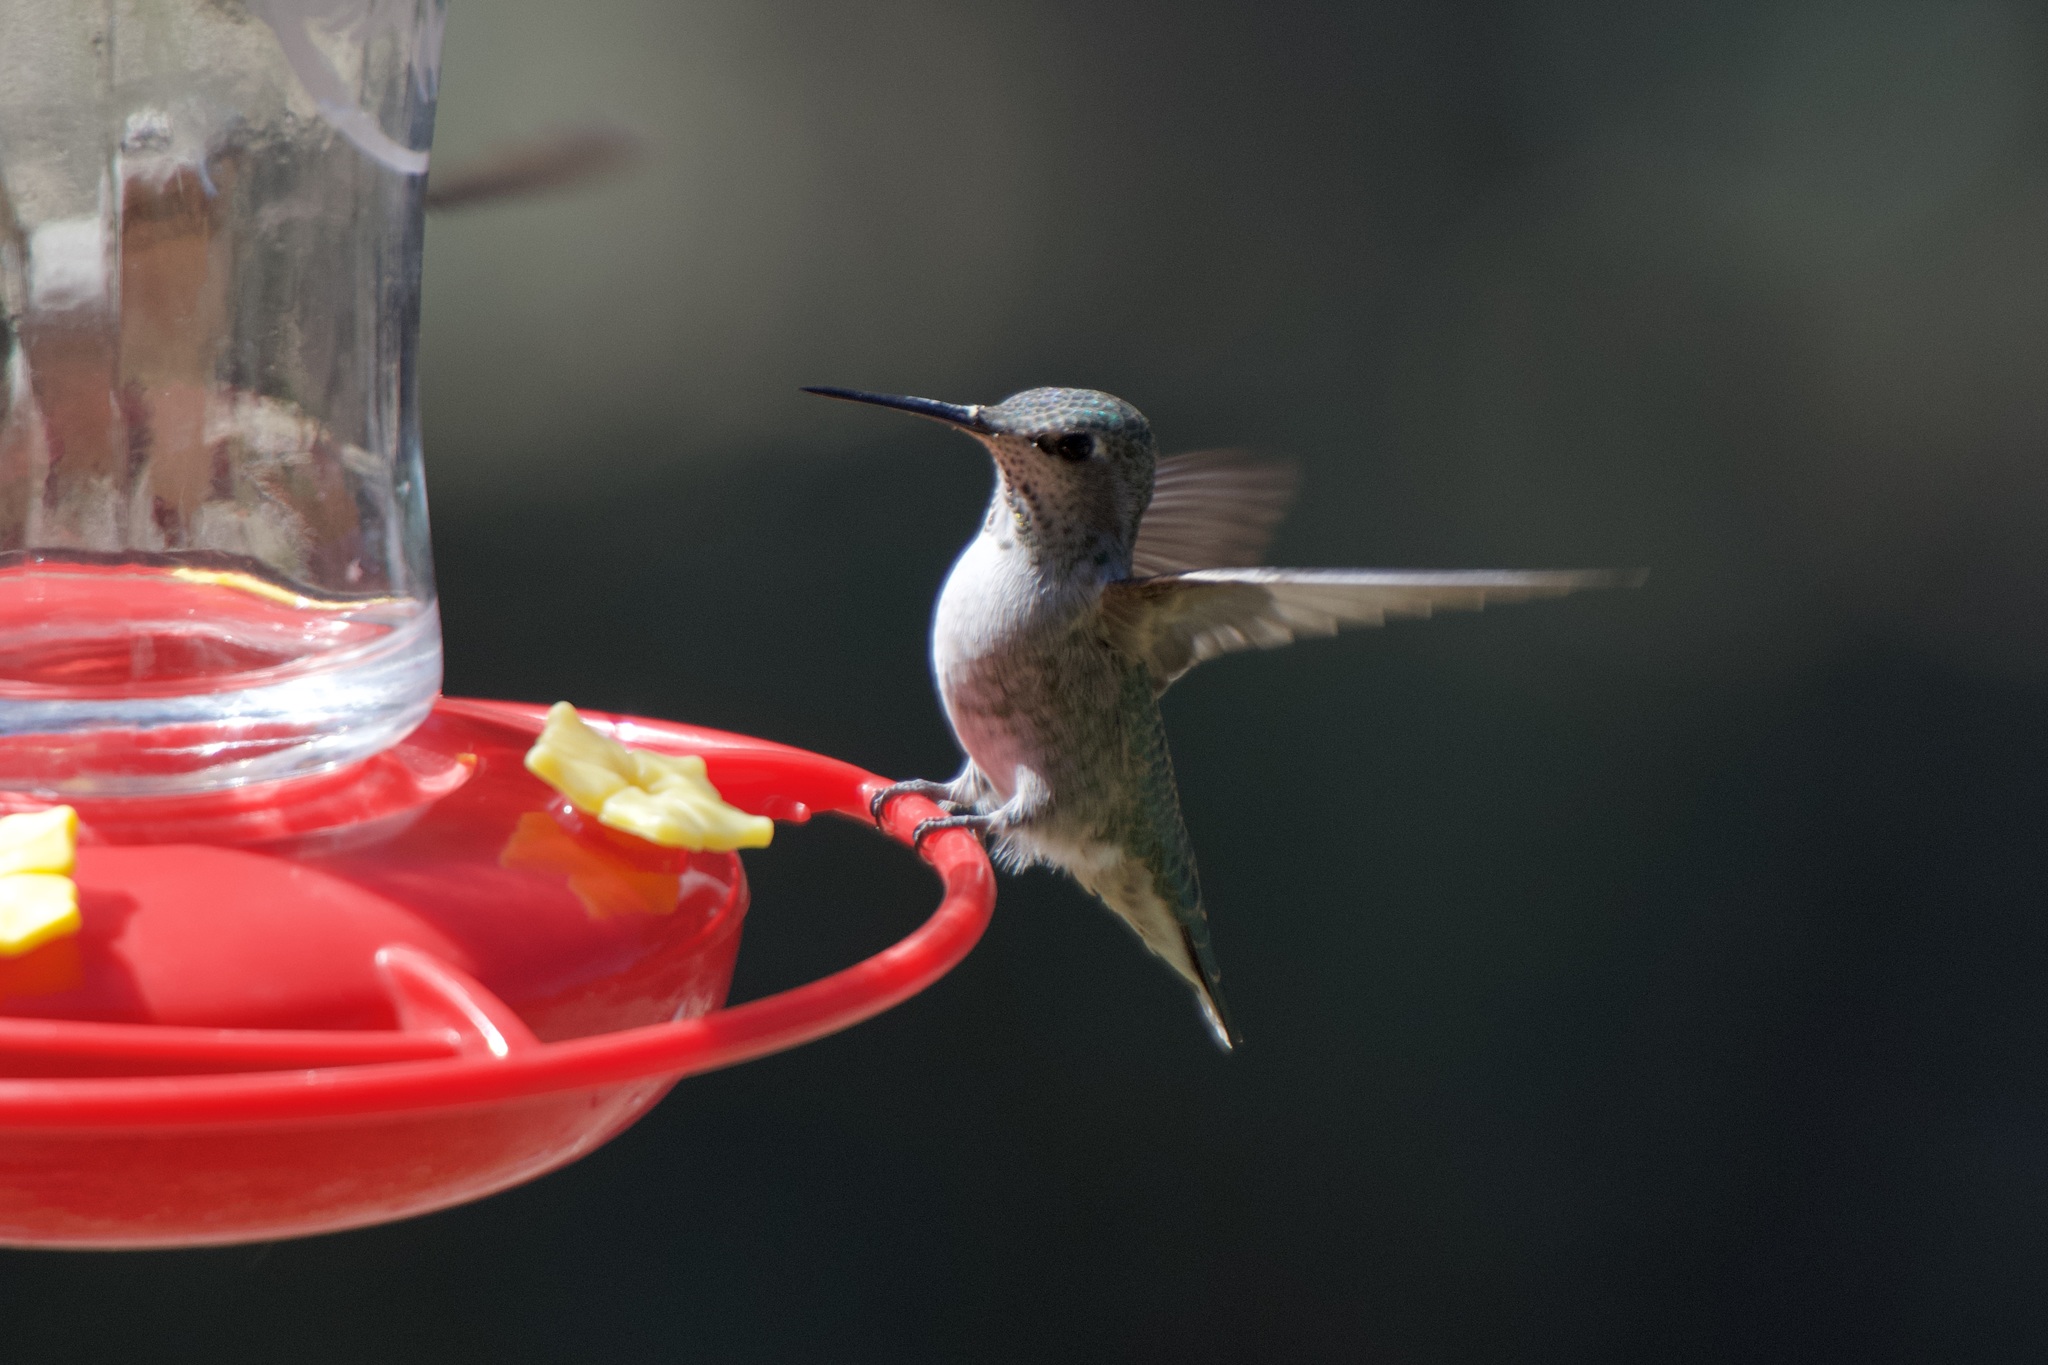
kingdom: Animalia
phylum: Chordata
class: Aves
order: Apodiformes
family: Trochilidae
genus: Calypte
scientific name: Calypte anna
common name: Anna's hummingbird
